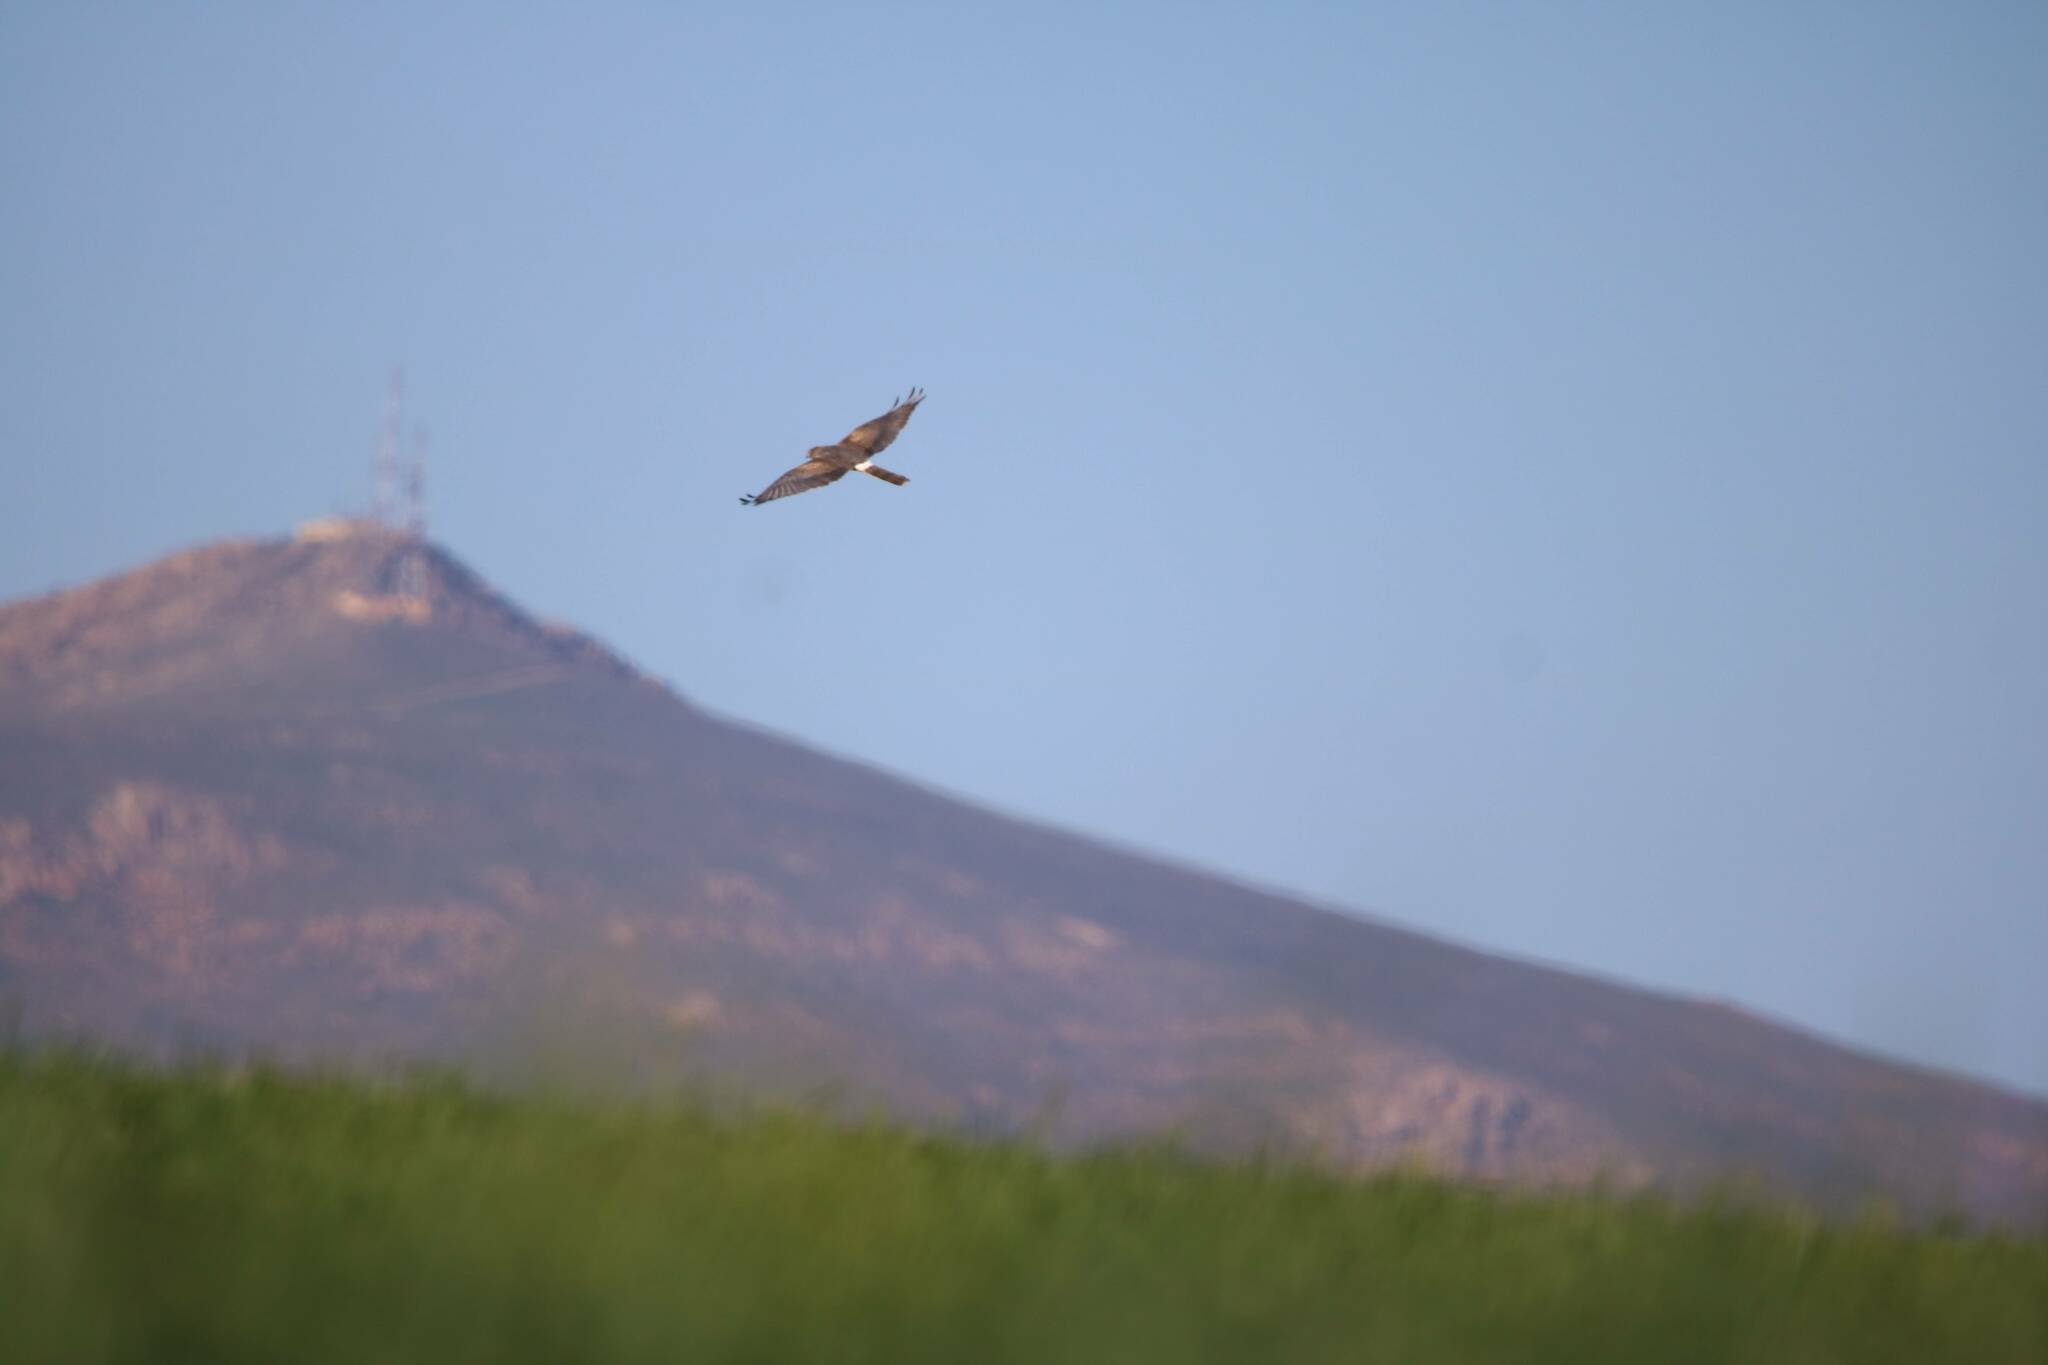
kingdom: Animalia
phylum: Chordata
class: Aves
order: Accipitriformes
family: Accipitridae
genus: Circus
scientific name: Circus pygargus
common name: Montagu's harrier
